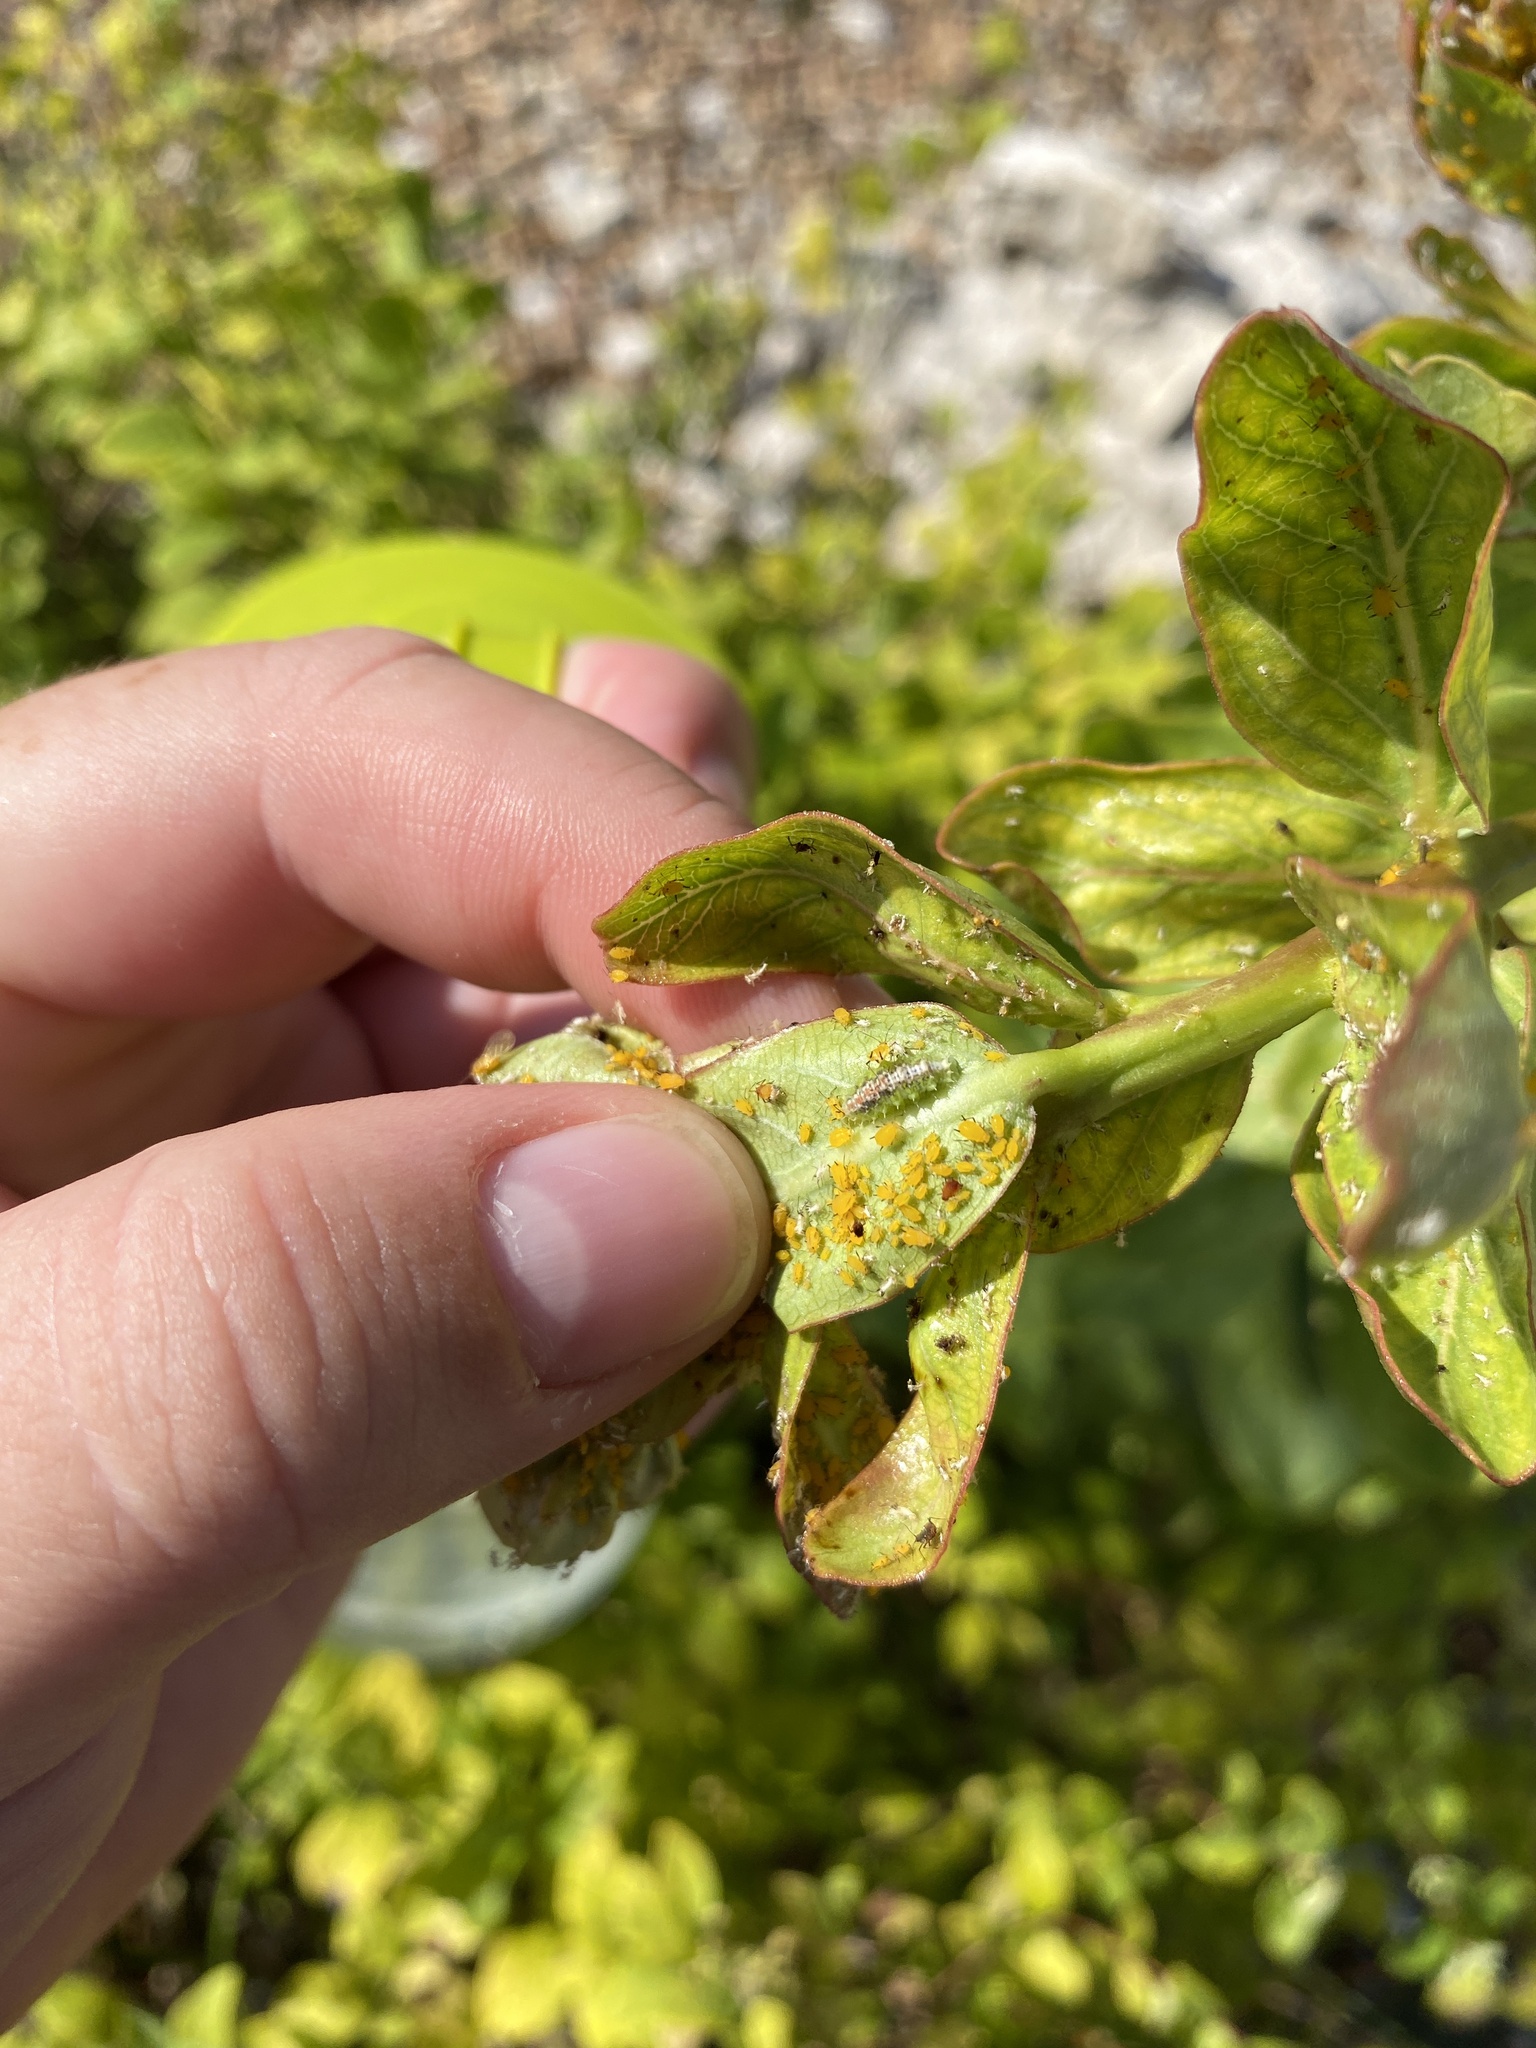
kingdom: Animalia
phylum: Arthropoda
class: Insecta
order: Diptera
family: Syrphidae
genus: Dioprosopa
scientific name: Dioprosopa clavatus
